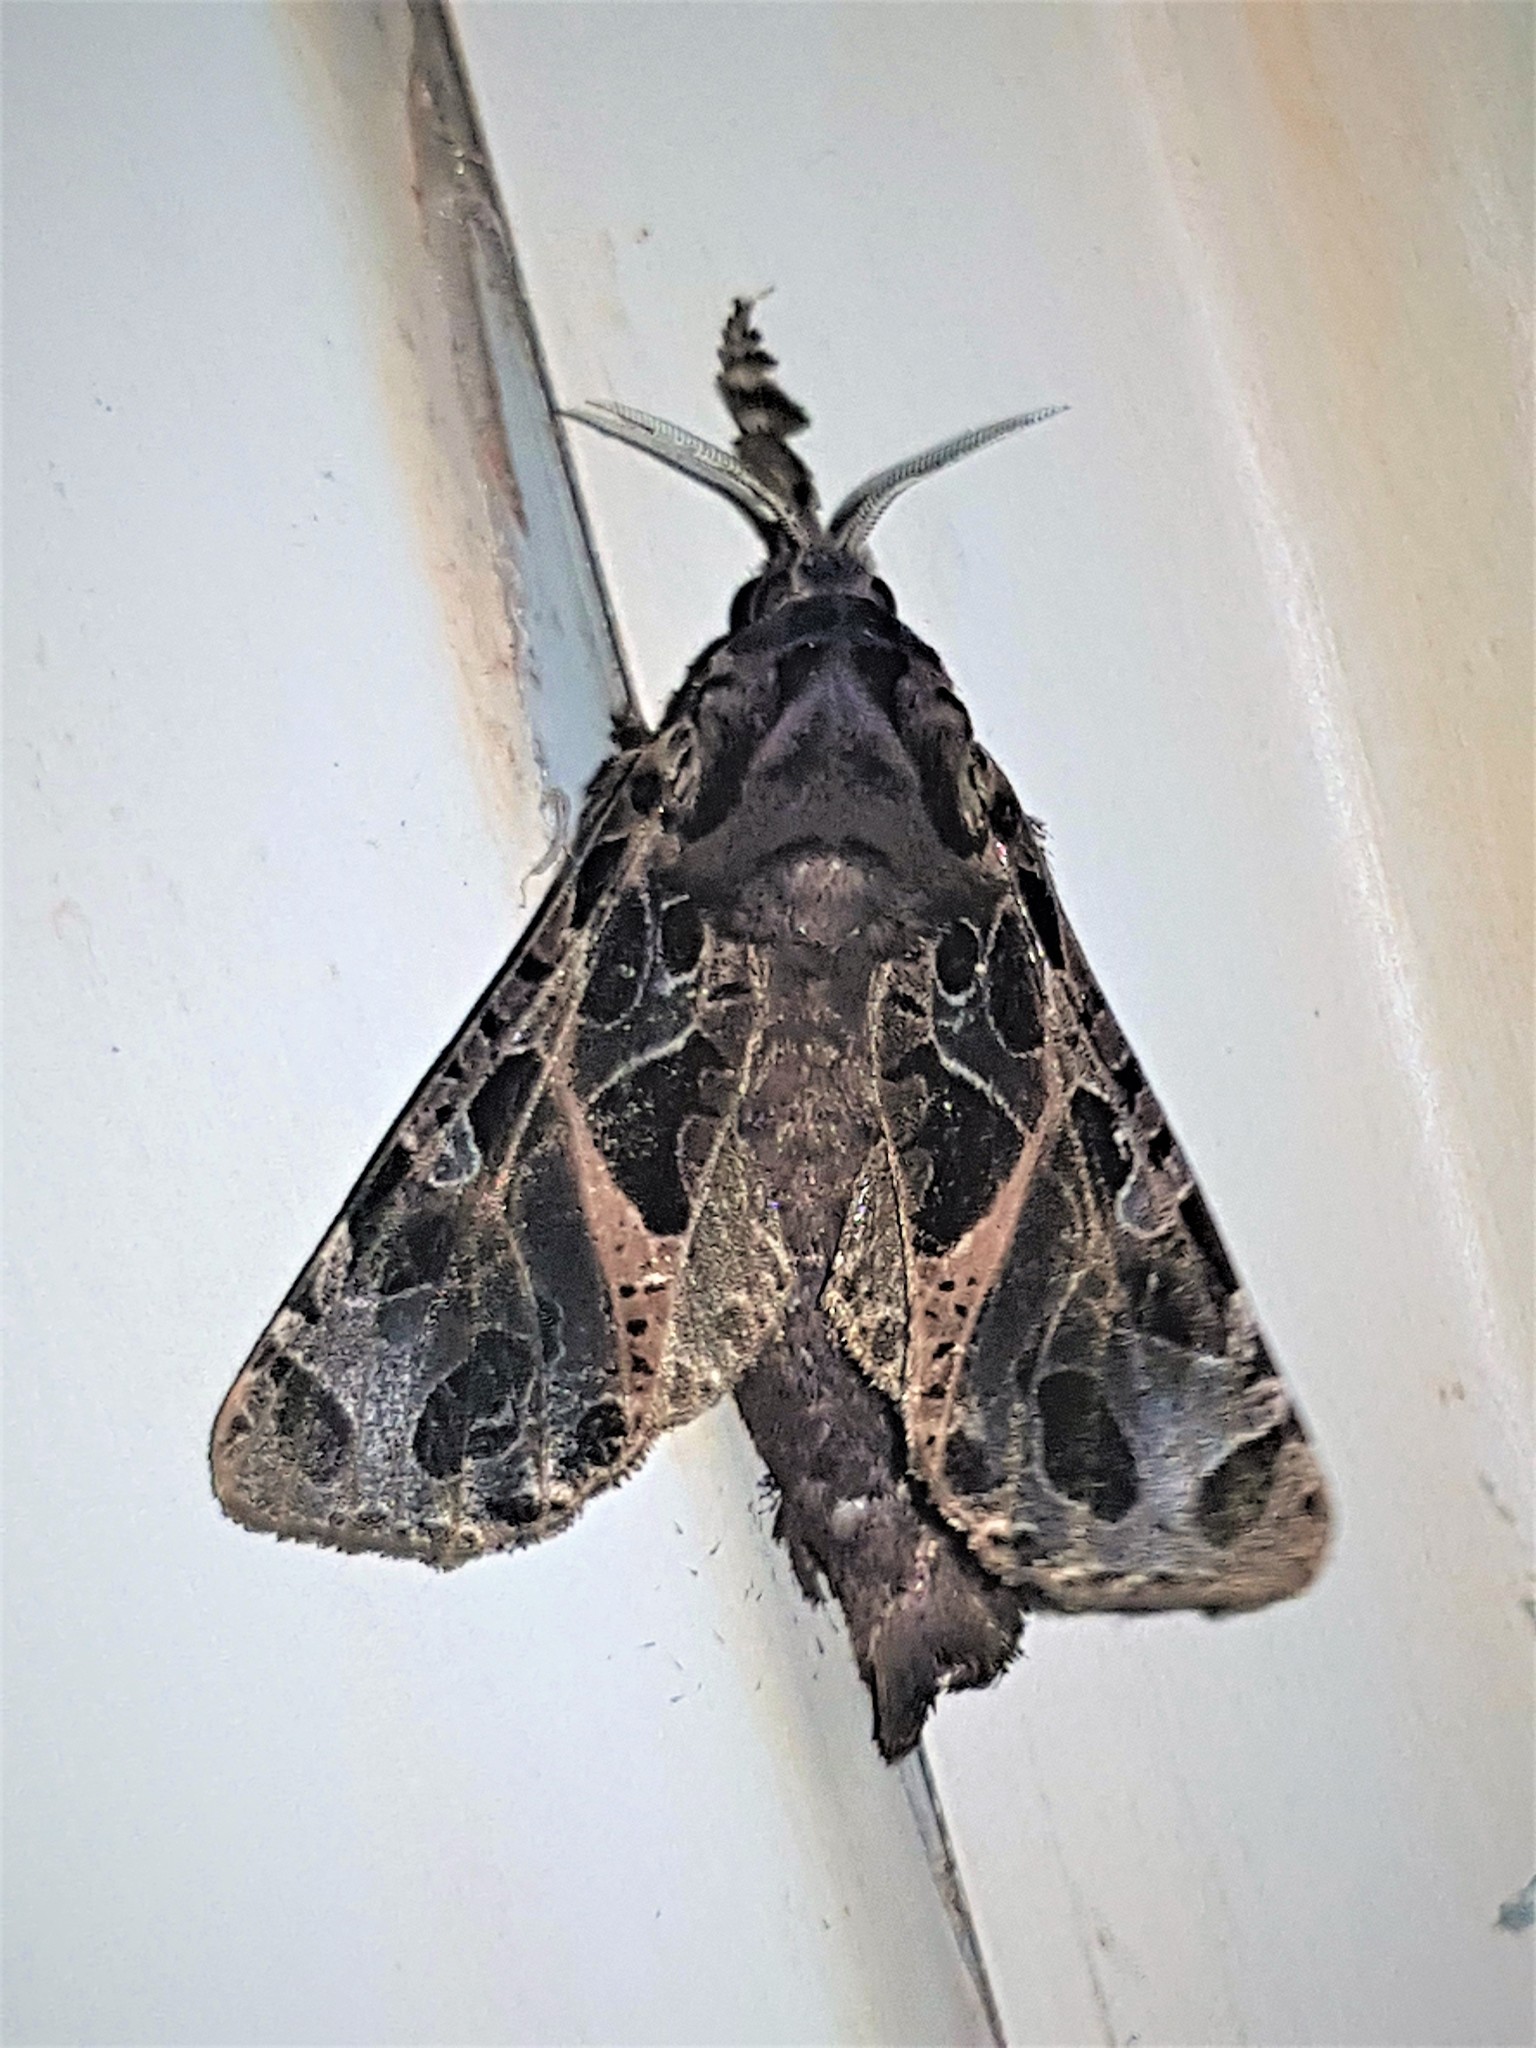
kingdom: Animalia
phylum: Arthropoda
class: Insecta
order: Lepidoptera
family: Cossidae
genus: Dolecta
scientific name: Dolecta
